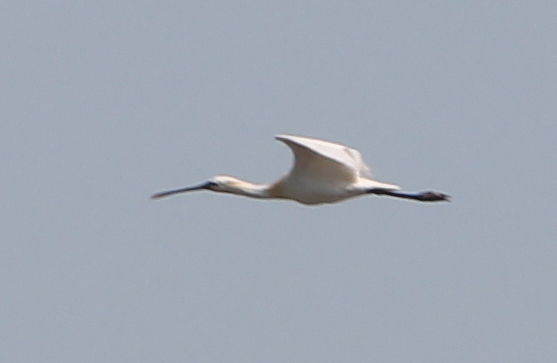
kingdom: Animalia
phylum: Chordata
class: Aves
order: Pelecaniformes
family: Threskiornithidae
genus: Platalea
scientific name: Platalea leucorodia
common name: Eurasian spoonbill
